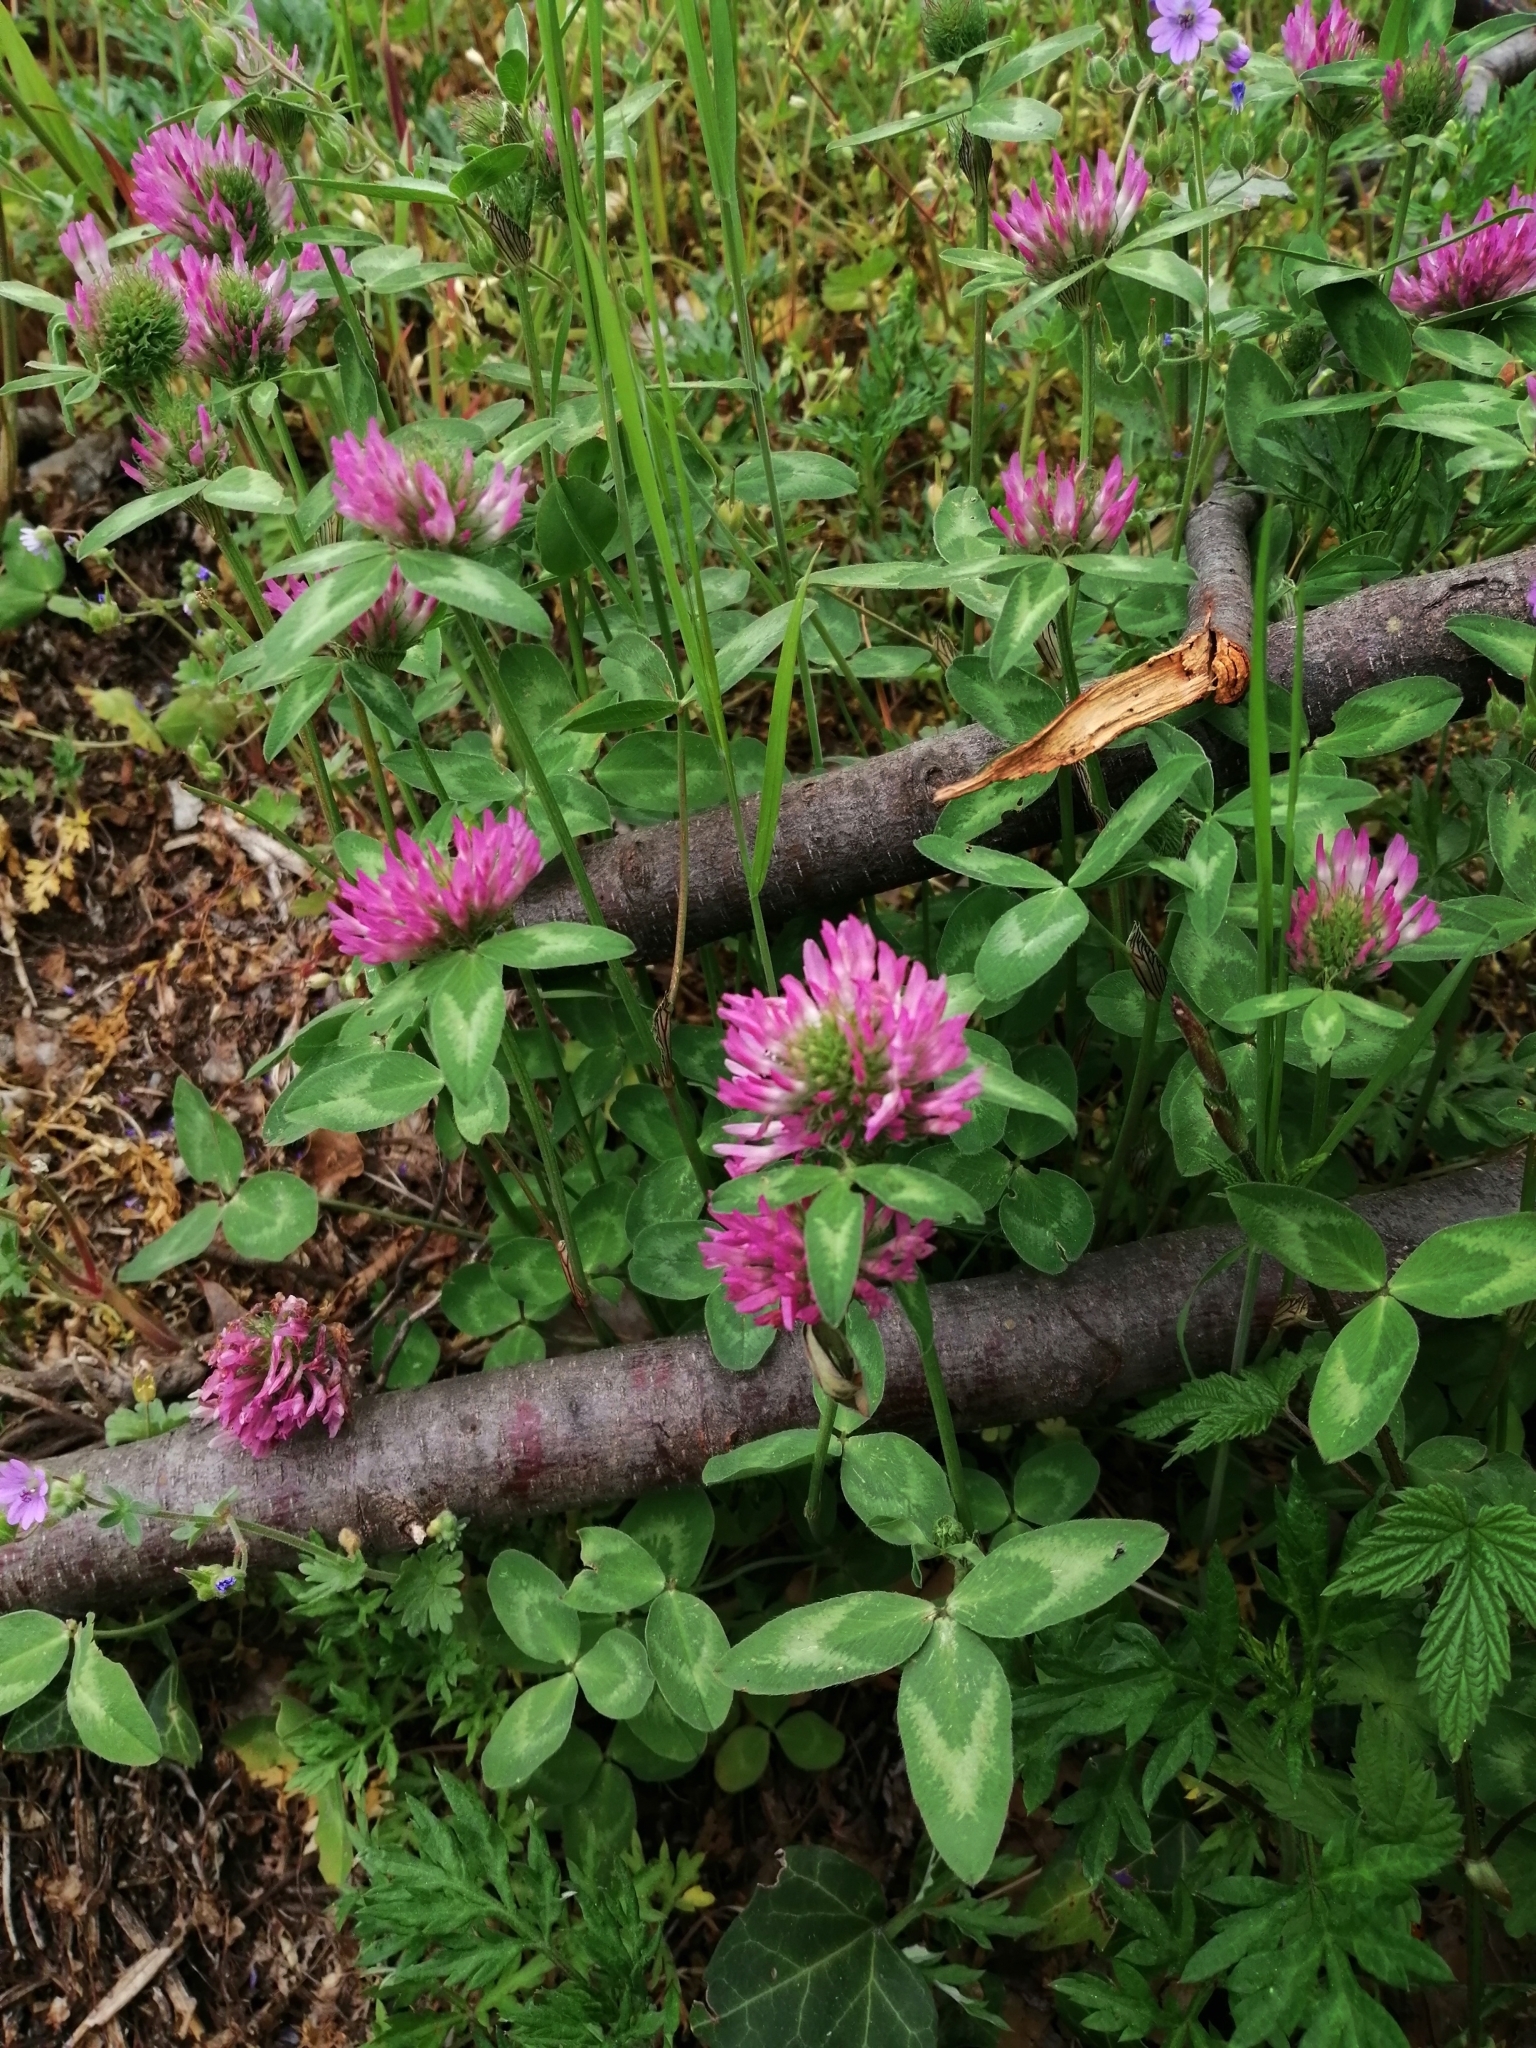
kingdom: Plantae
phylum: Tracheophyta
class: Magnoliopsida
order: Fabales
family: Fabaceae
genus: Trifolium
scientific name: Trifolium pratense
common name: Red clover
